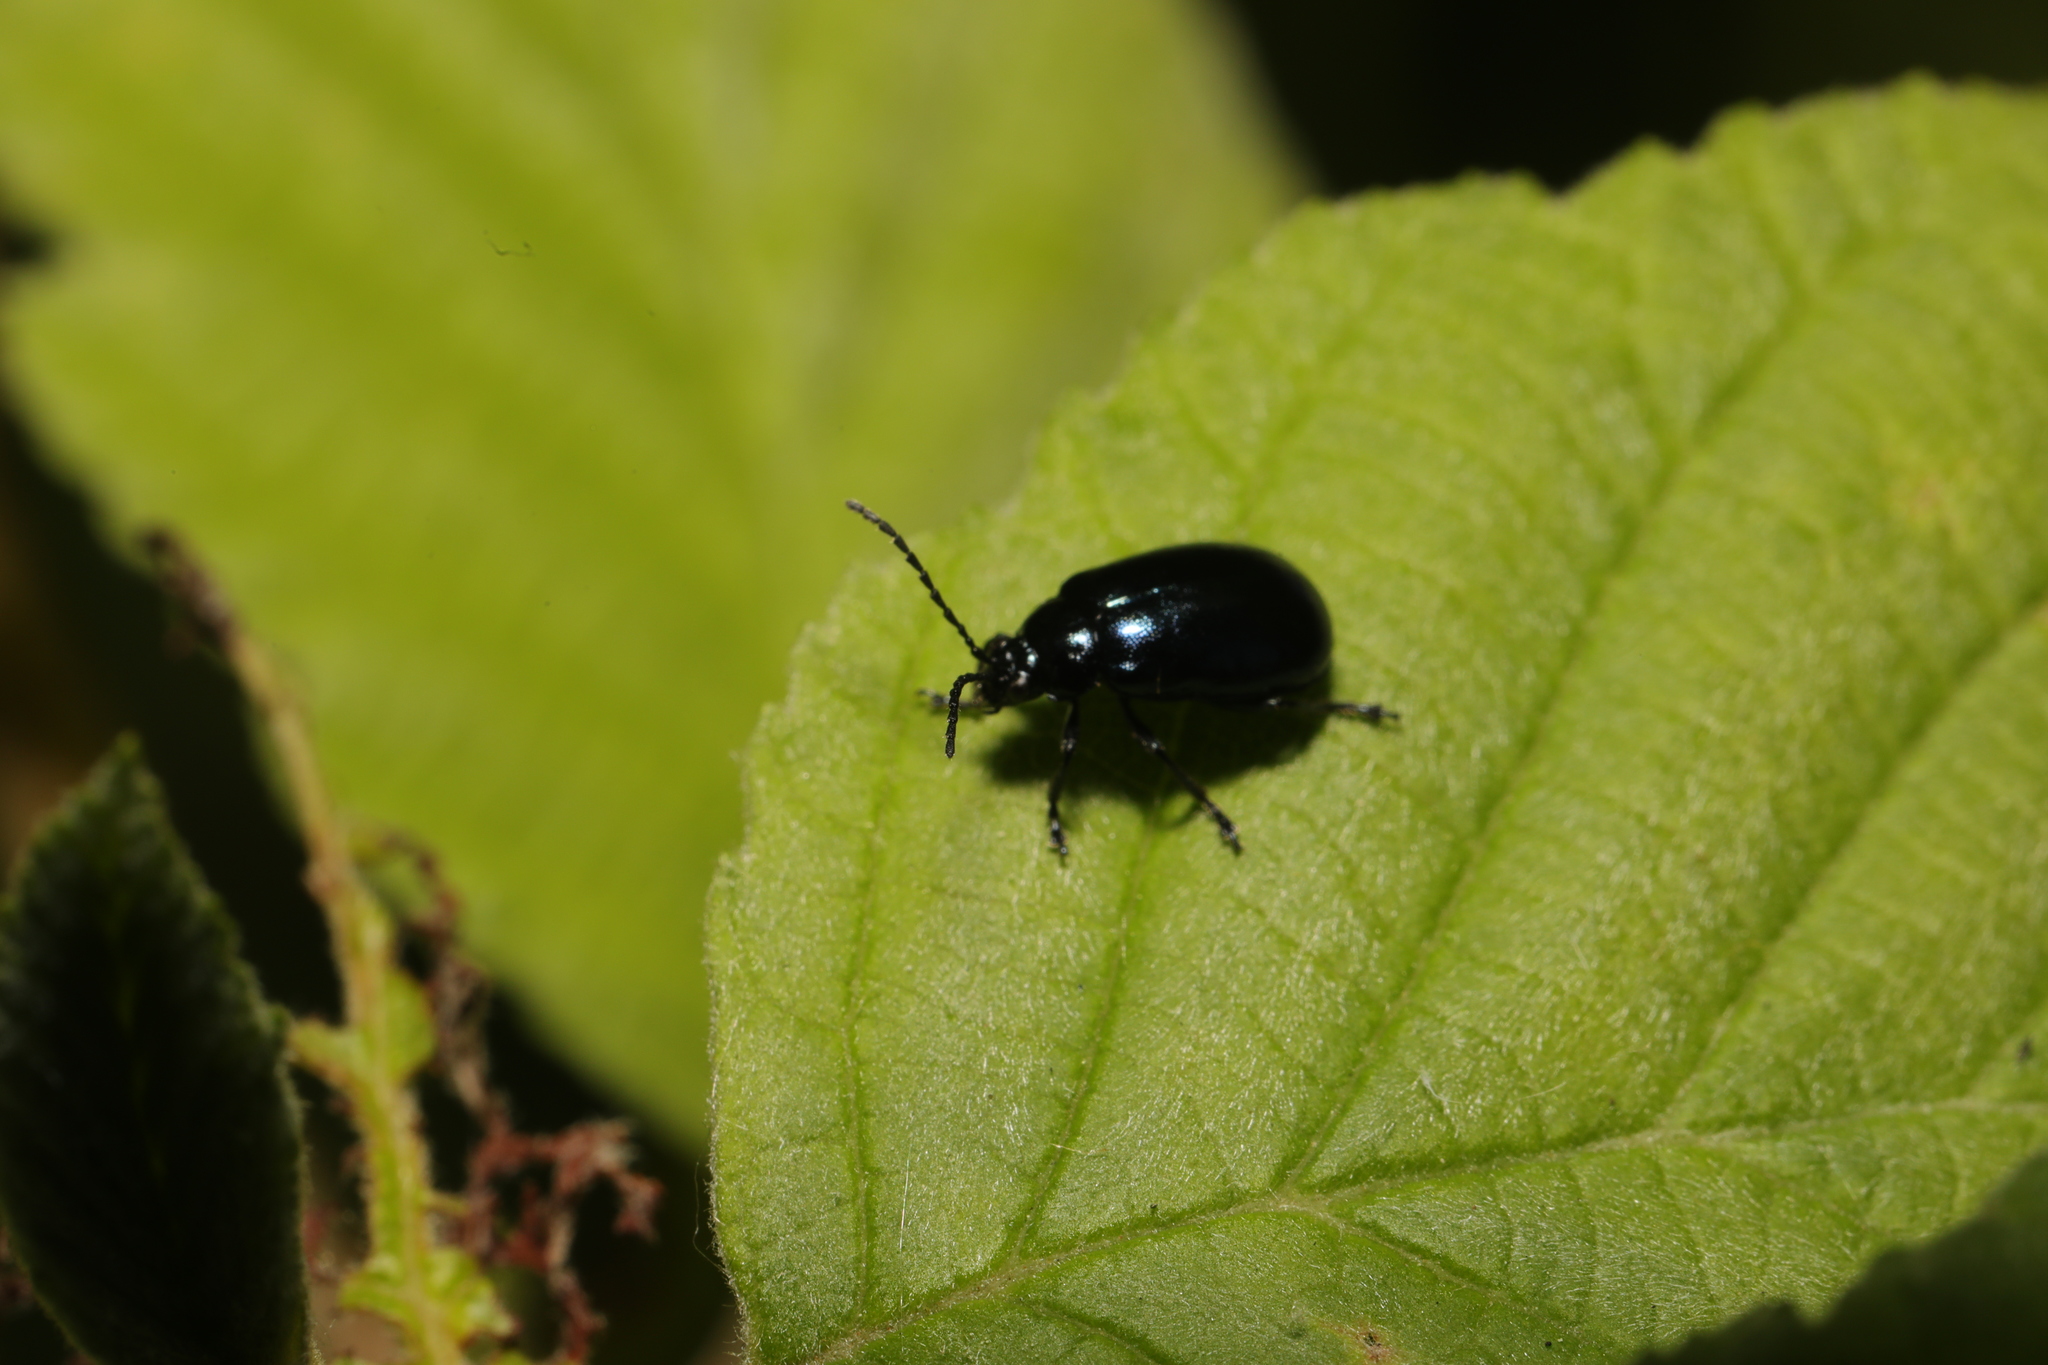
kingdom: Animalia
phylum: Arthropoda
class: Insecta
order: Coleoptera
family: Chrysomelidae
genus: Agelastica
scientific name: Agelastica alni
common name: Alder leaf beetle
